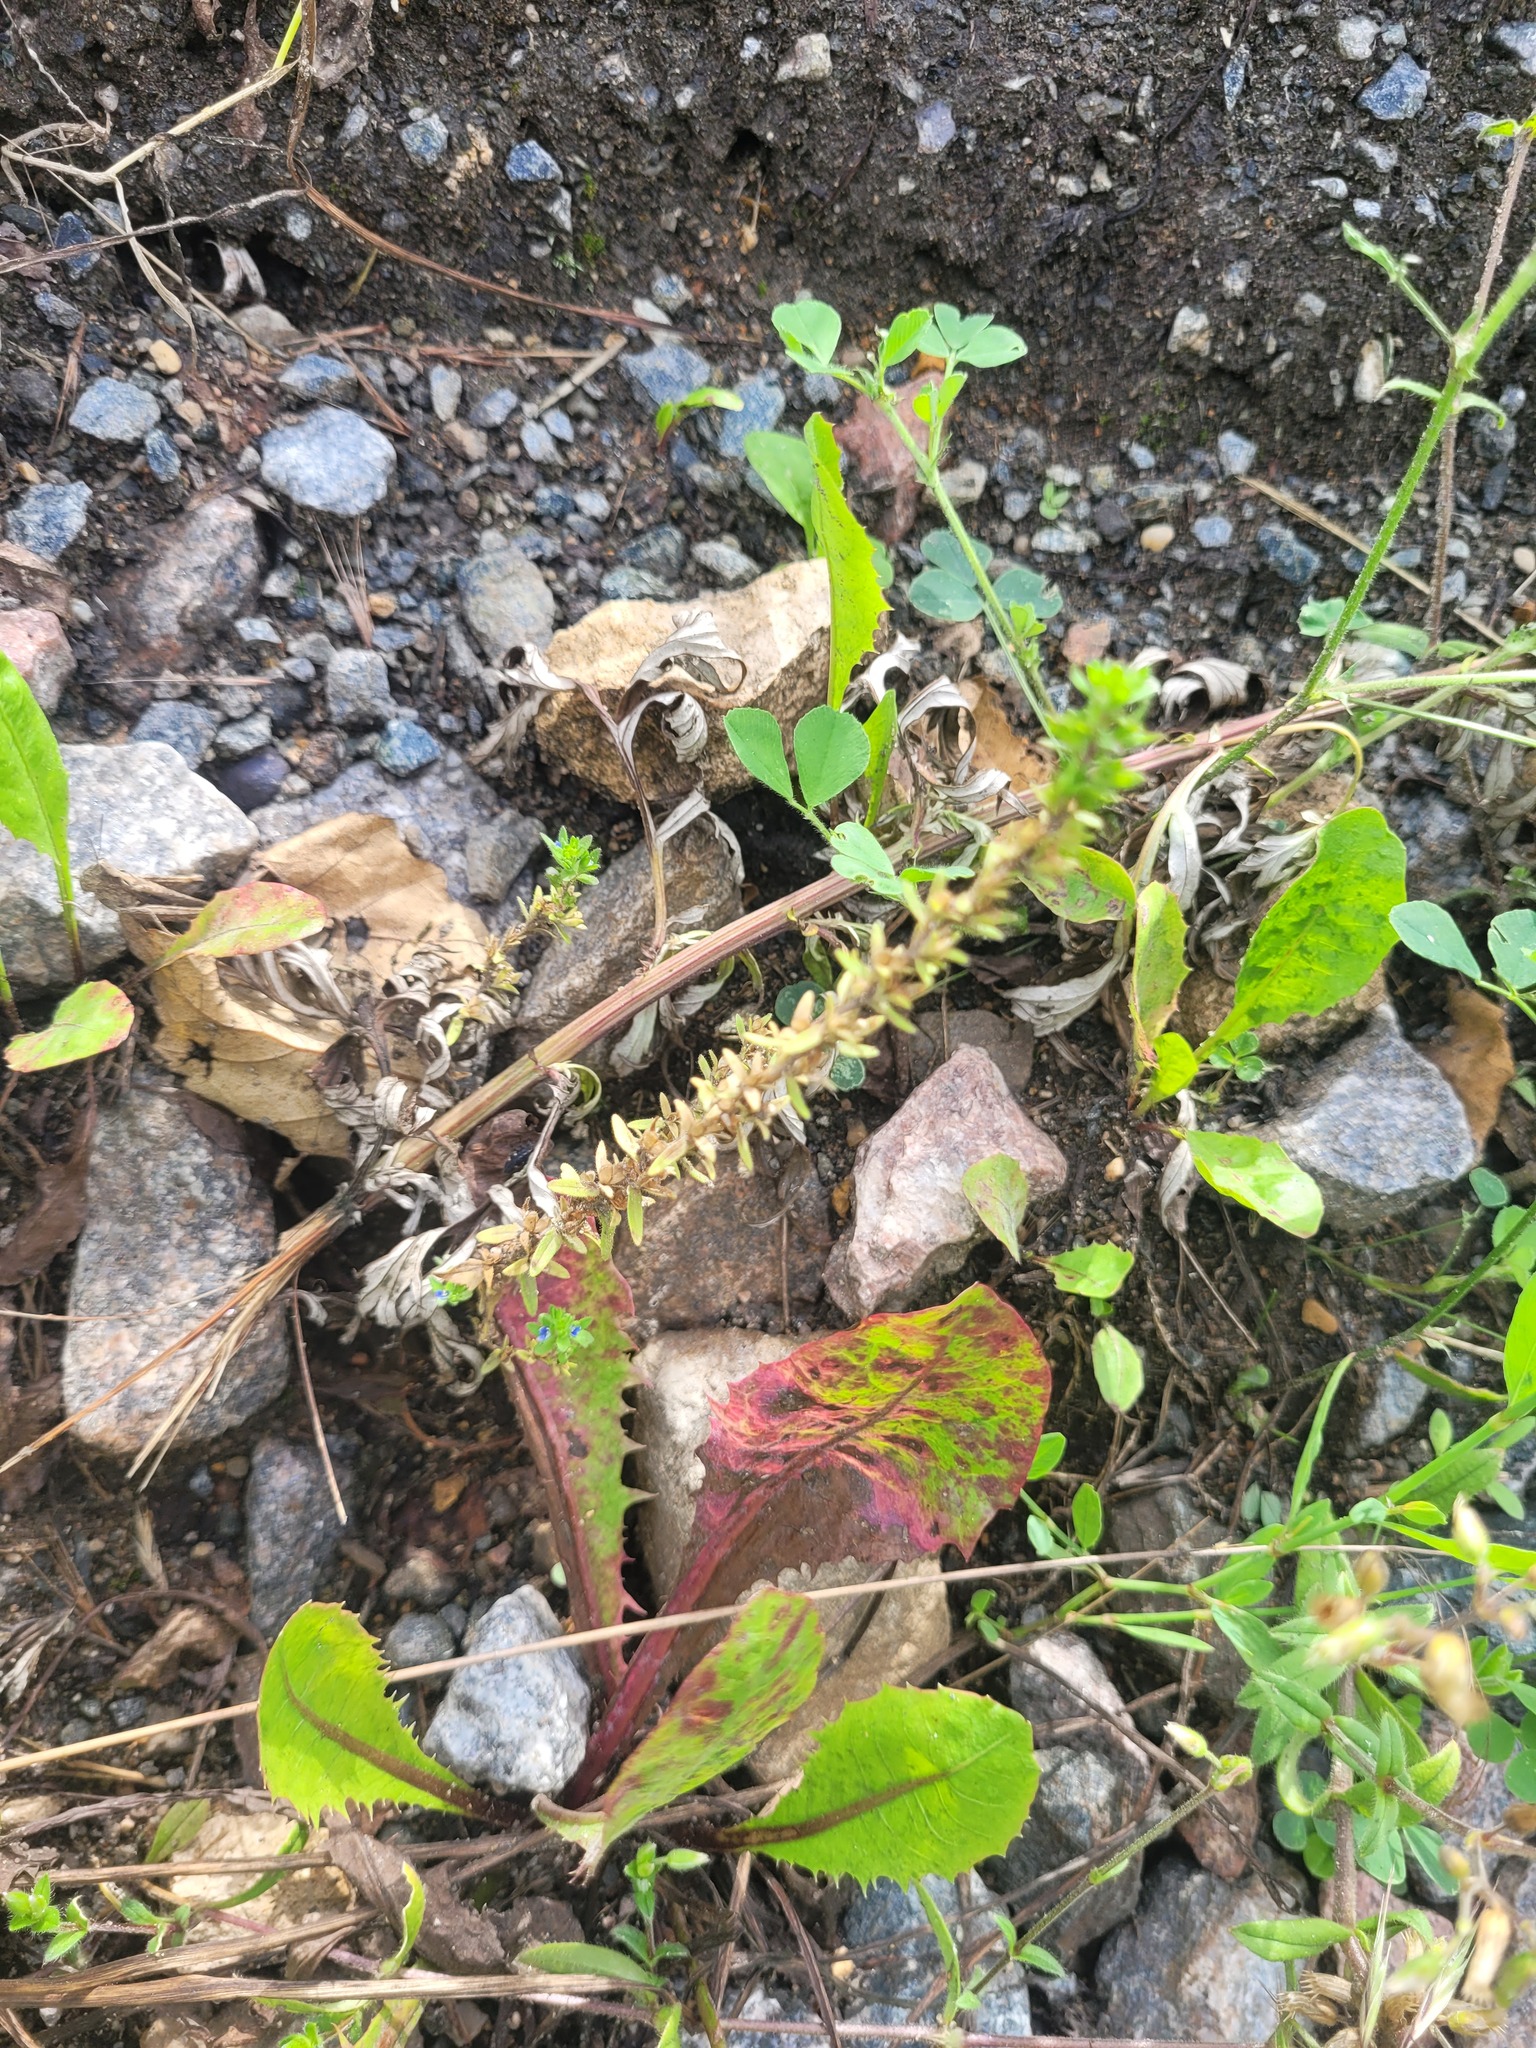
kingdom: Plantae
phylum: Tracheophyta
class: Magnoliopsida
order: Lamiales
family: Plantaginaceae
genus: Veronica
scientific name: Veronica arvensis
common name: Corn speedwell
